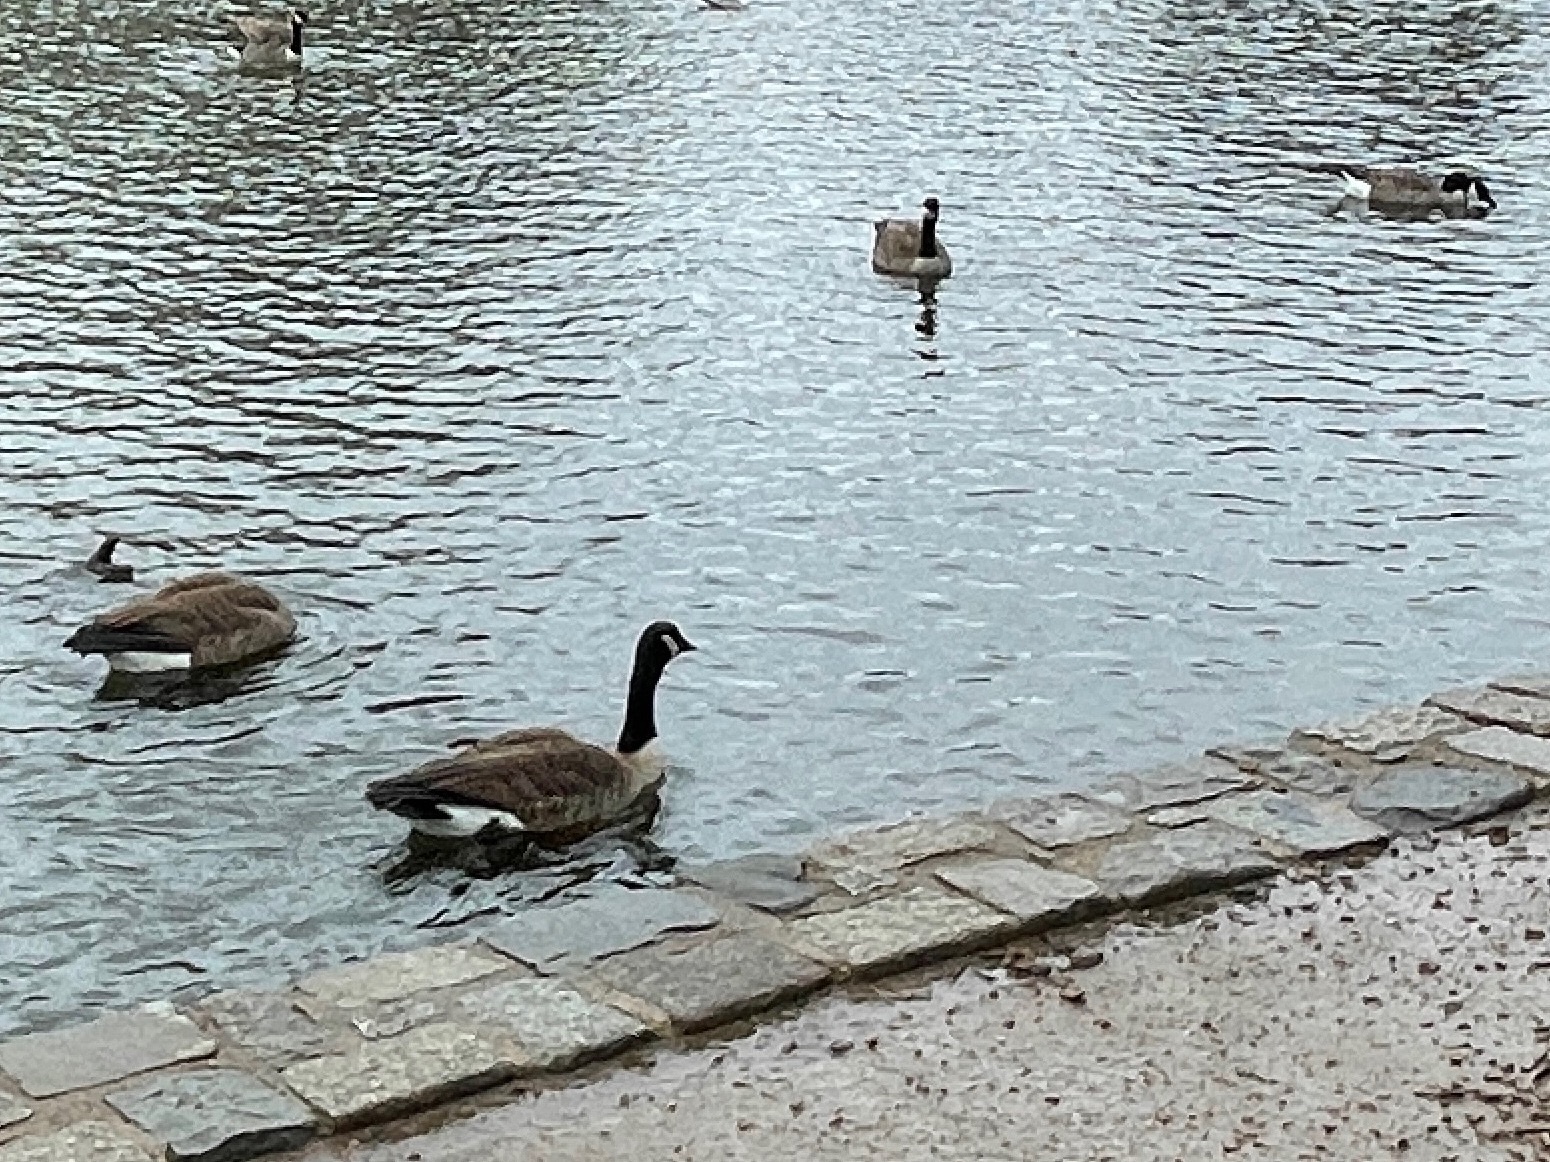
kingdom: Animalia
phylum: Chordata
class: Aves
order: Anseriformes
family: Anatidae
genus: Branta
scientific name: Branta canadensis
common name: Canada goose
